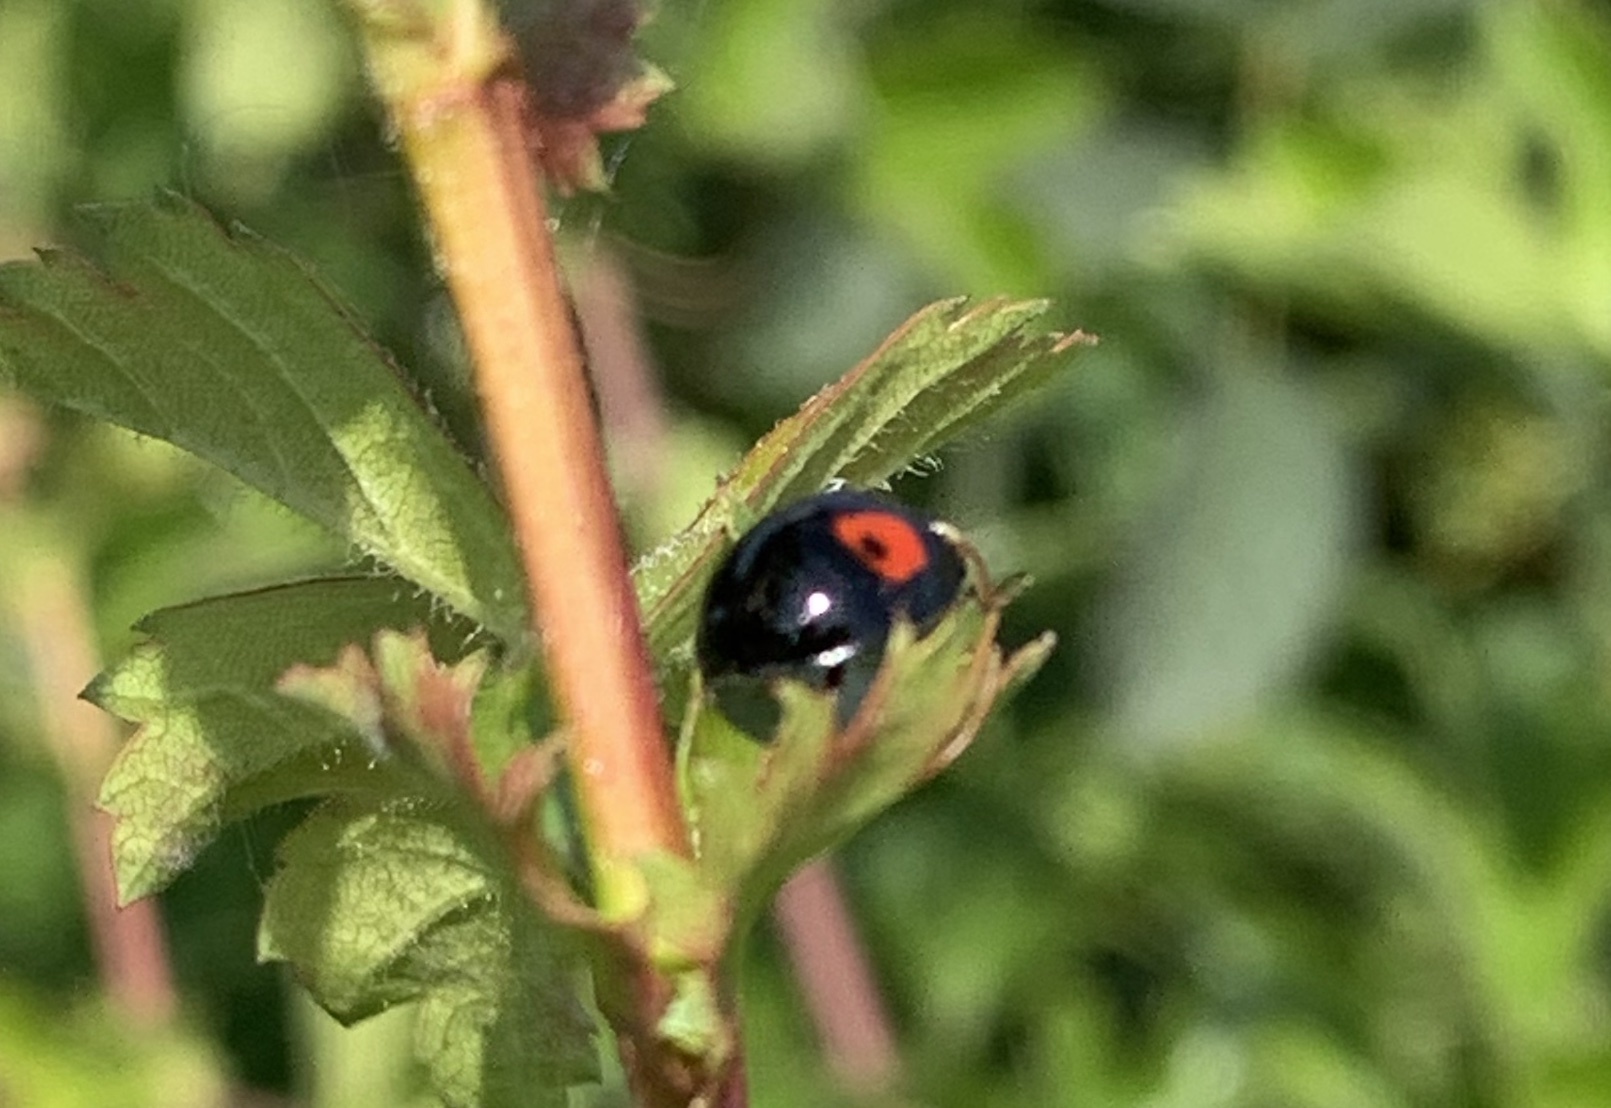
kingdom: Animalia
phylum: Arthropoda
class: Insecta
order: Coleoptera
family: Coccinellidae
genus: Harmonia
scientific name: Harmonia axyridis
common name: Harlequin ladybird
